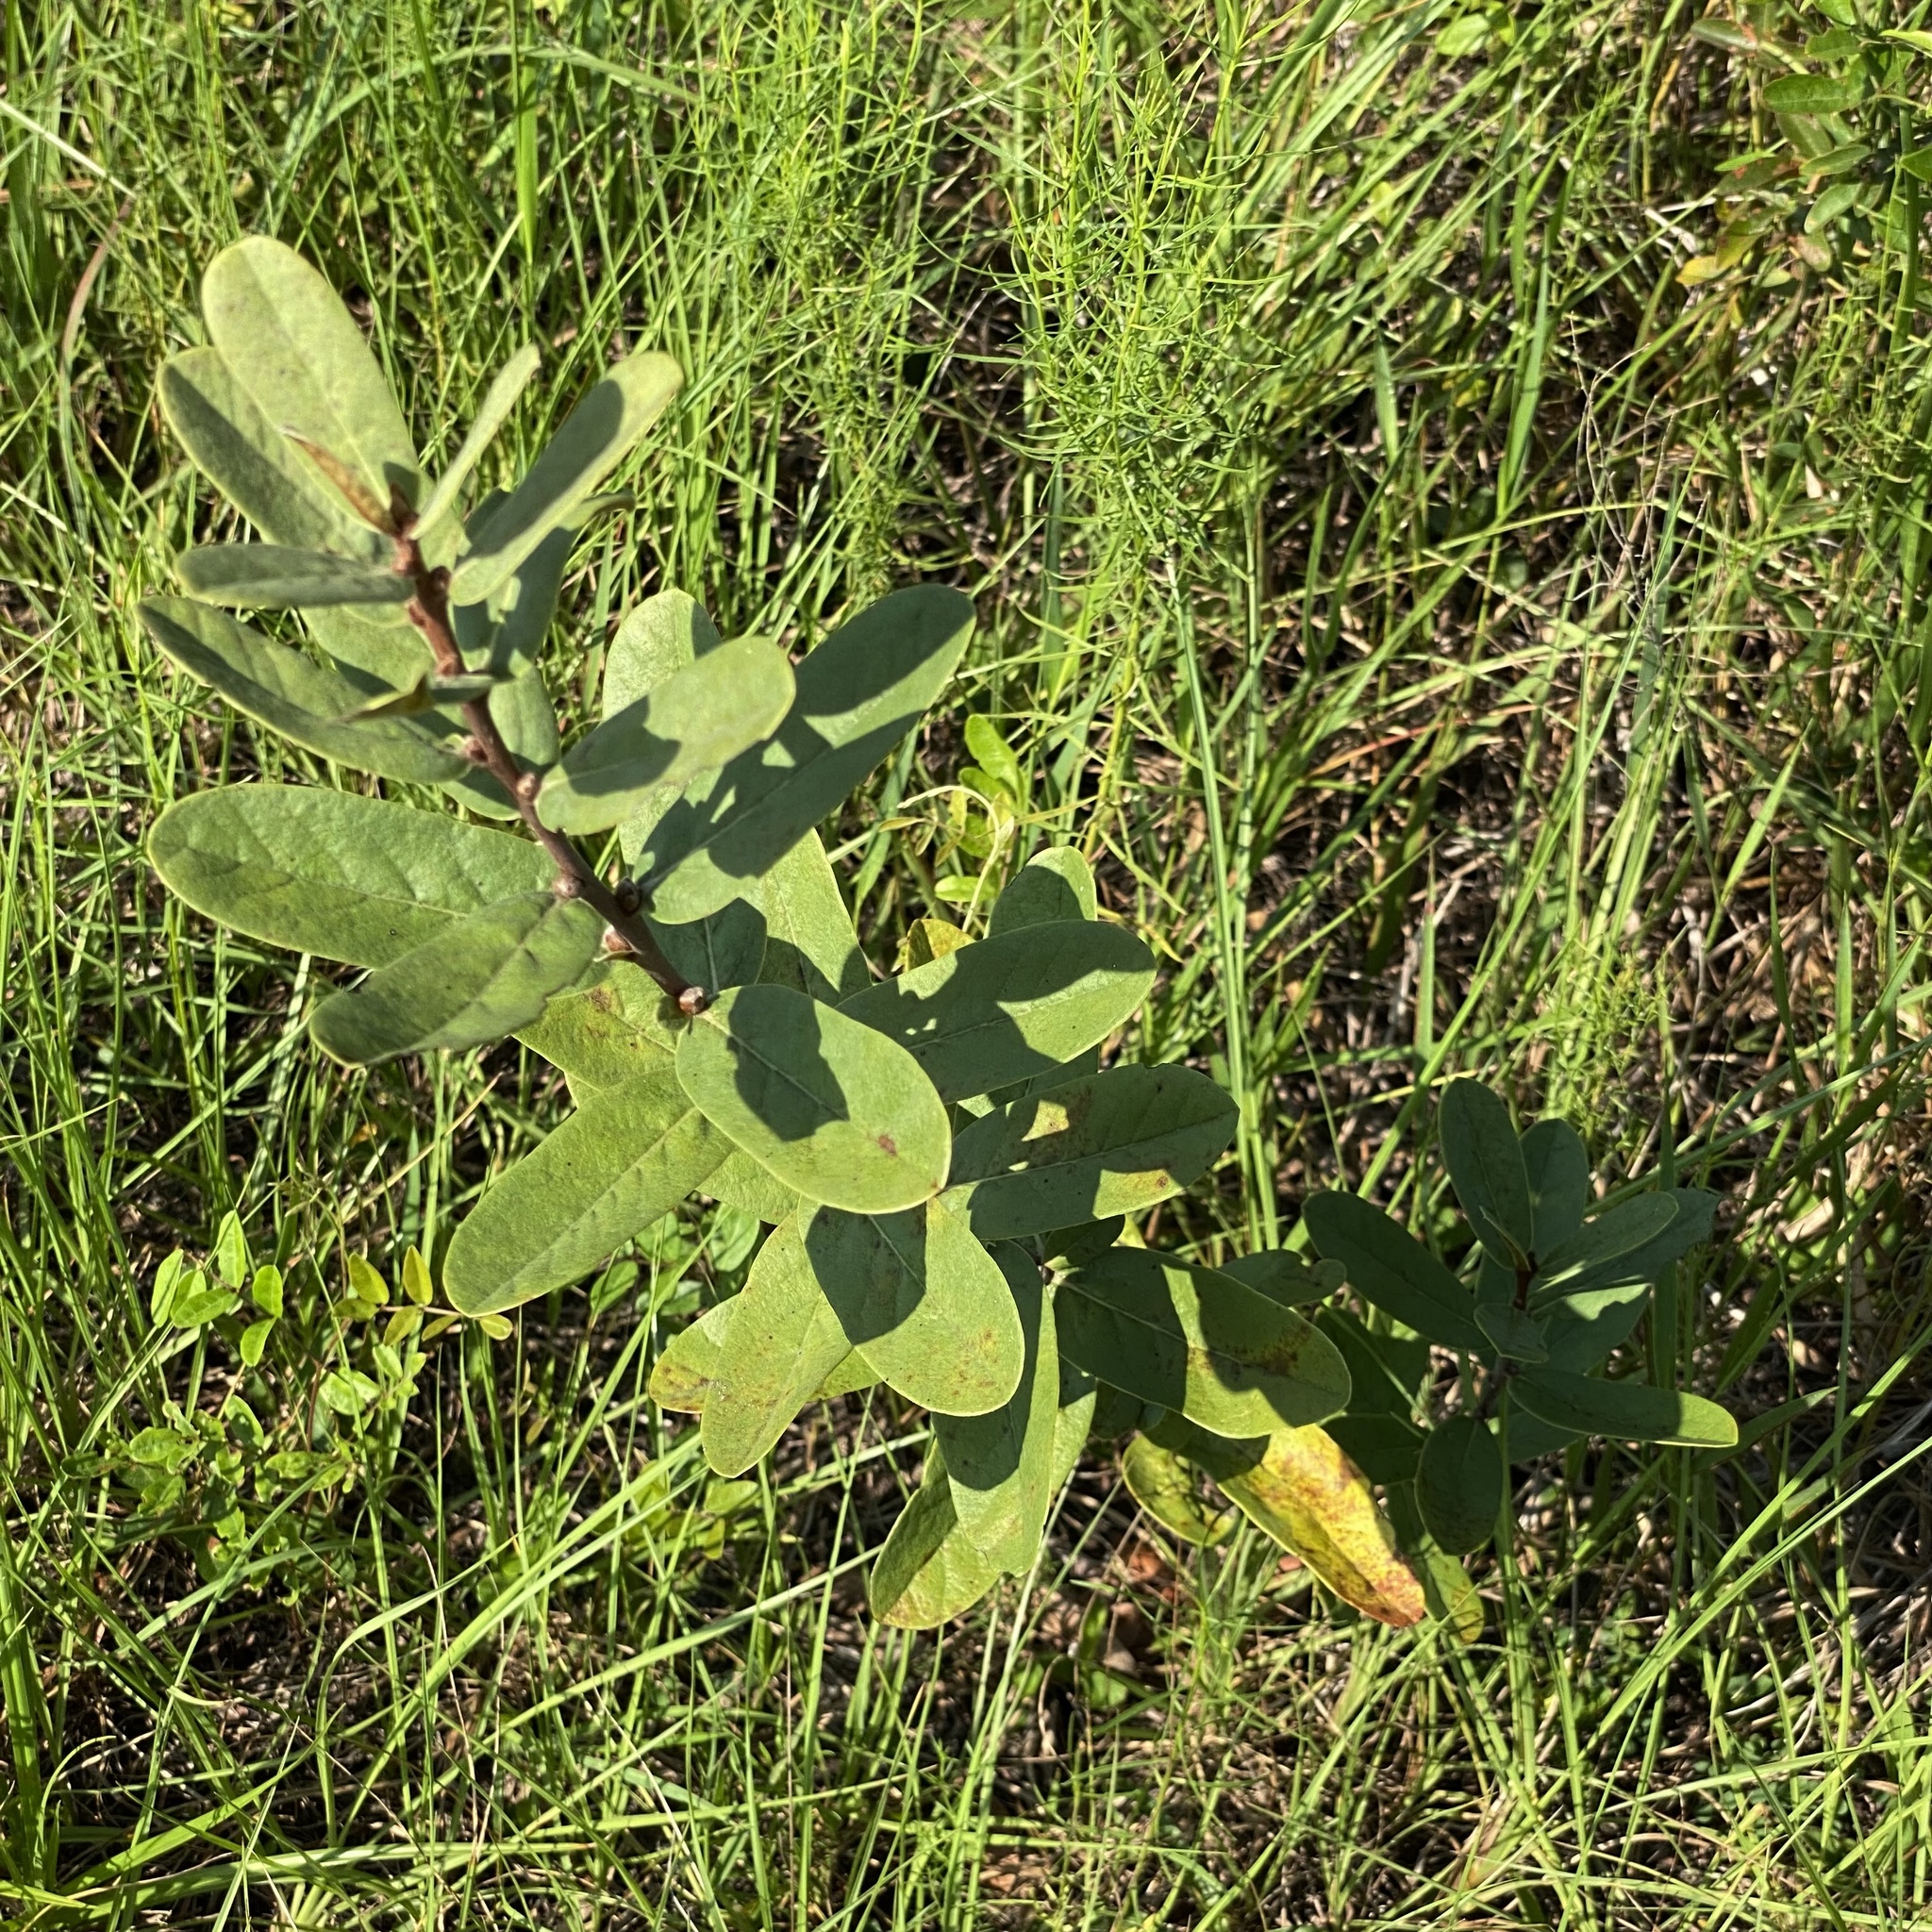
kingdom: Plantae
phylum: Tracheophyta
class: Magnoliopsida
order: Magnoliales
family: Annonaceae
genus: Asimina
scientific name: Asimina reticulata
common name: Flag pawpaw
